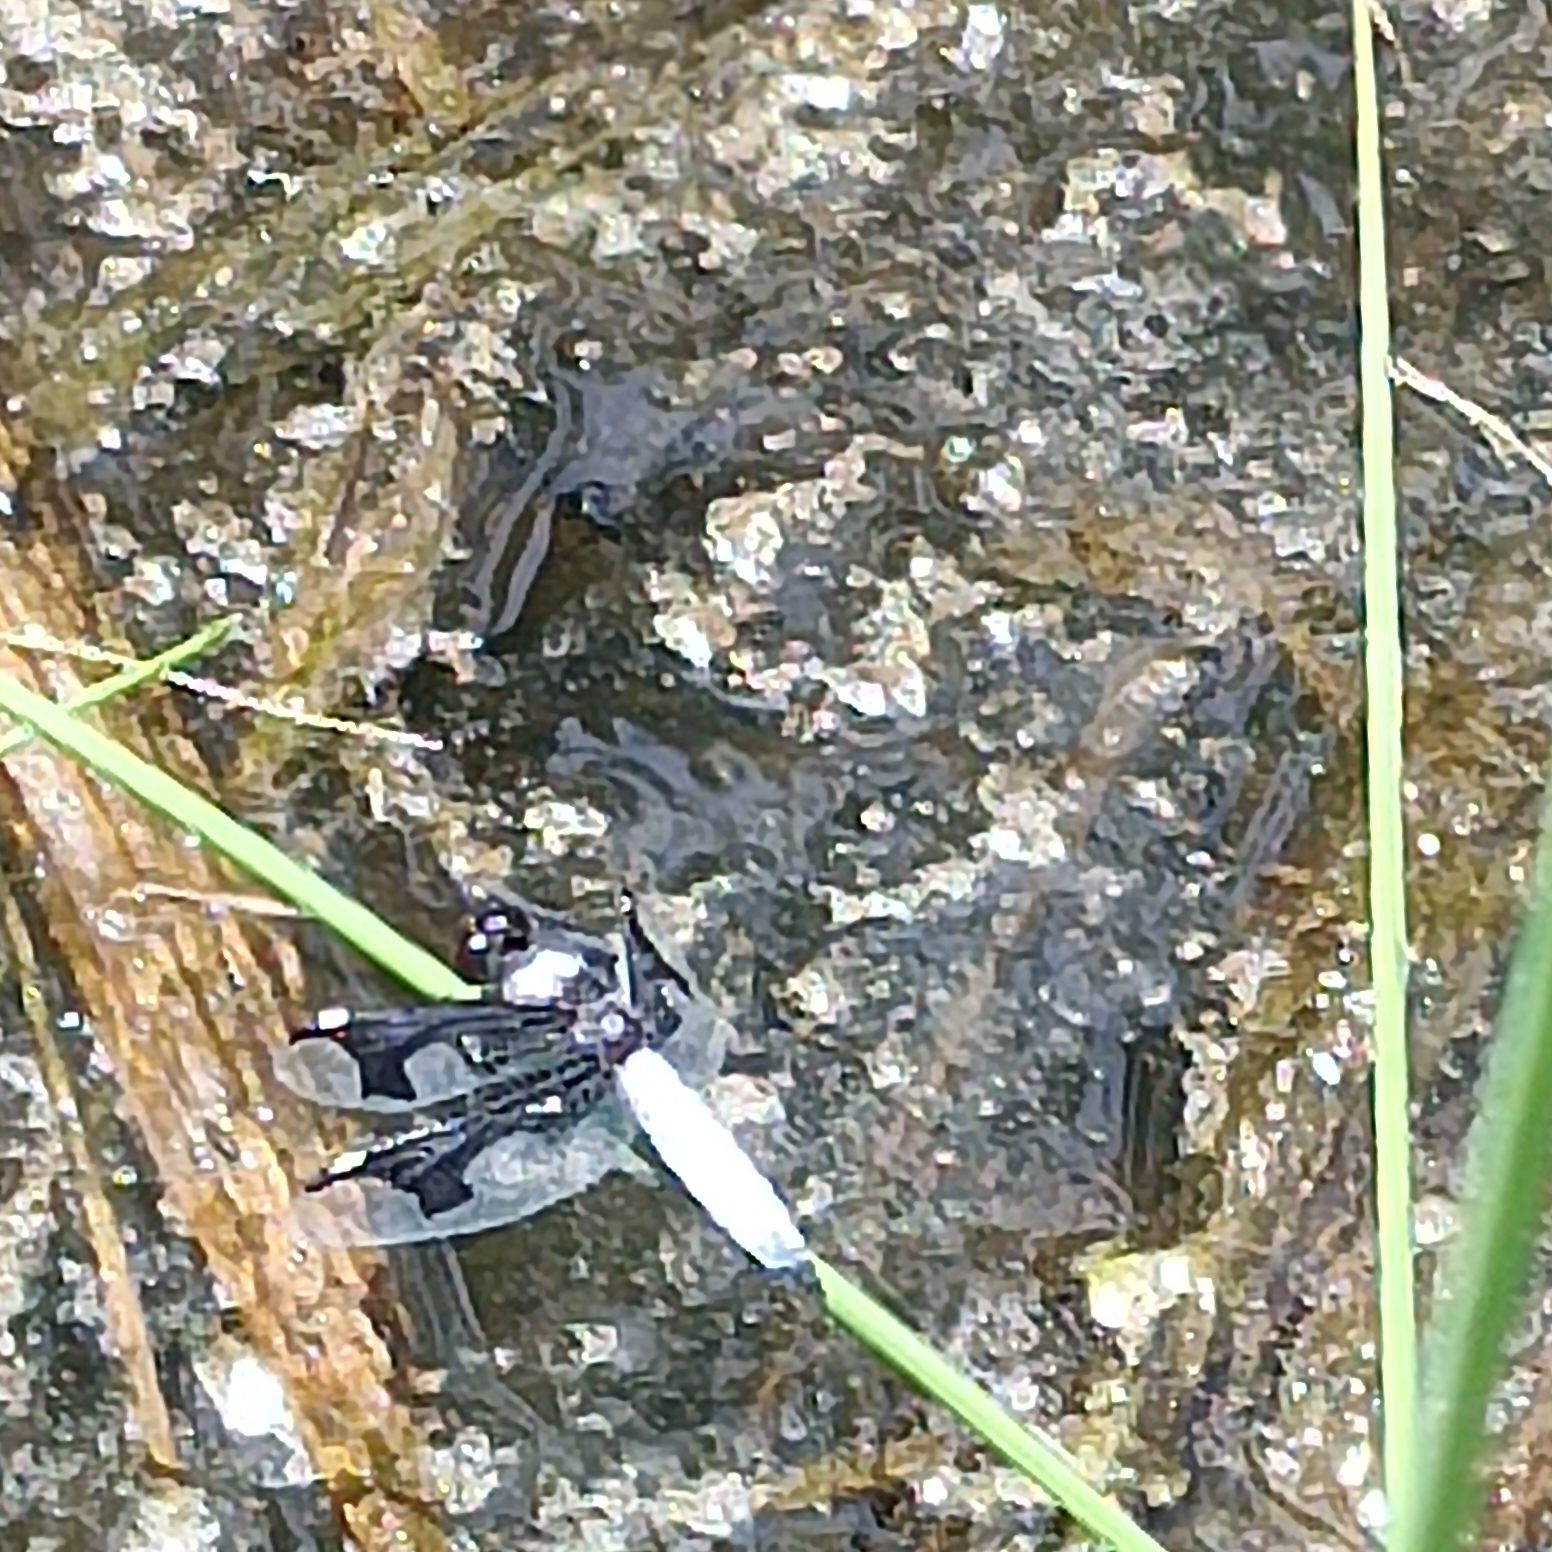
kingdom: Animalia
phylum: Arthropoda
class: Insecta
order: Odonata
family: Libellulidae
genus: Palpopleura
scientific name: Palpopleura portia
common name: Portia widow
